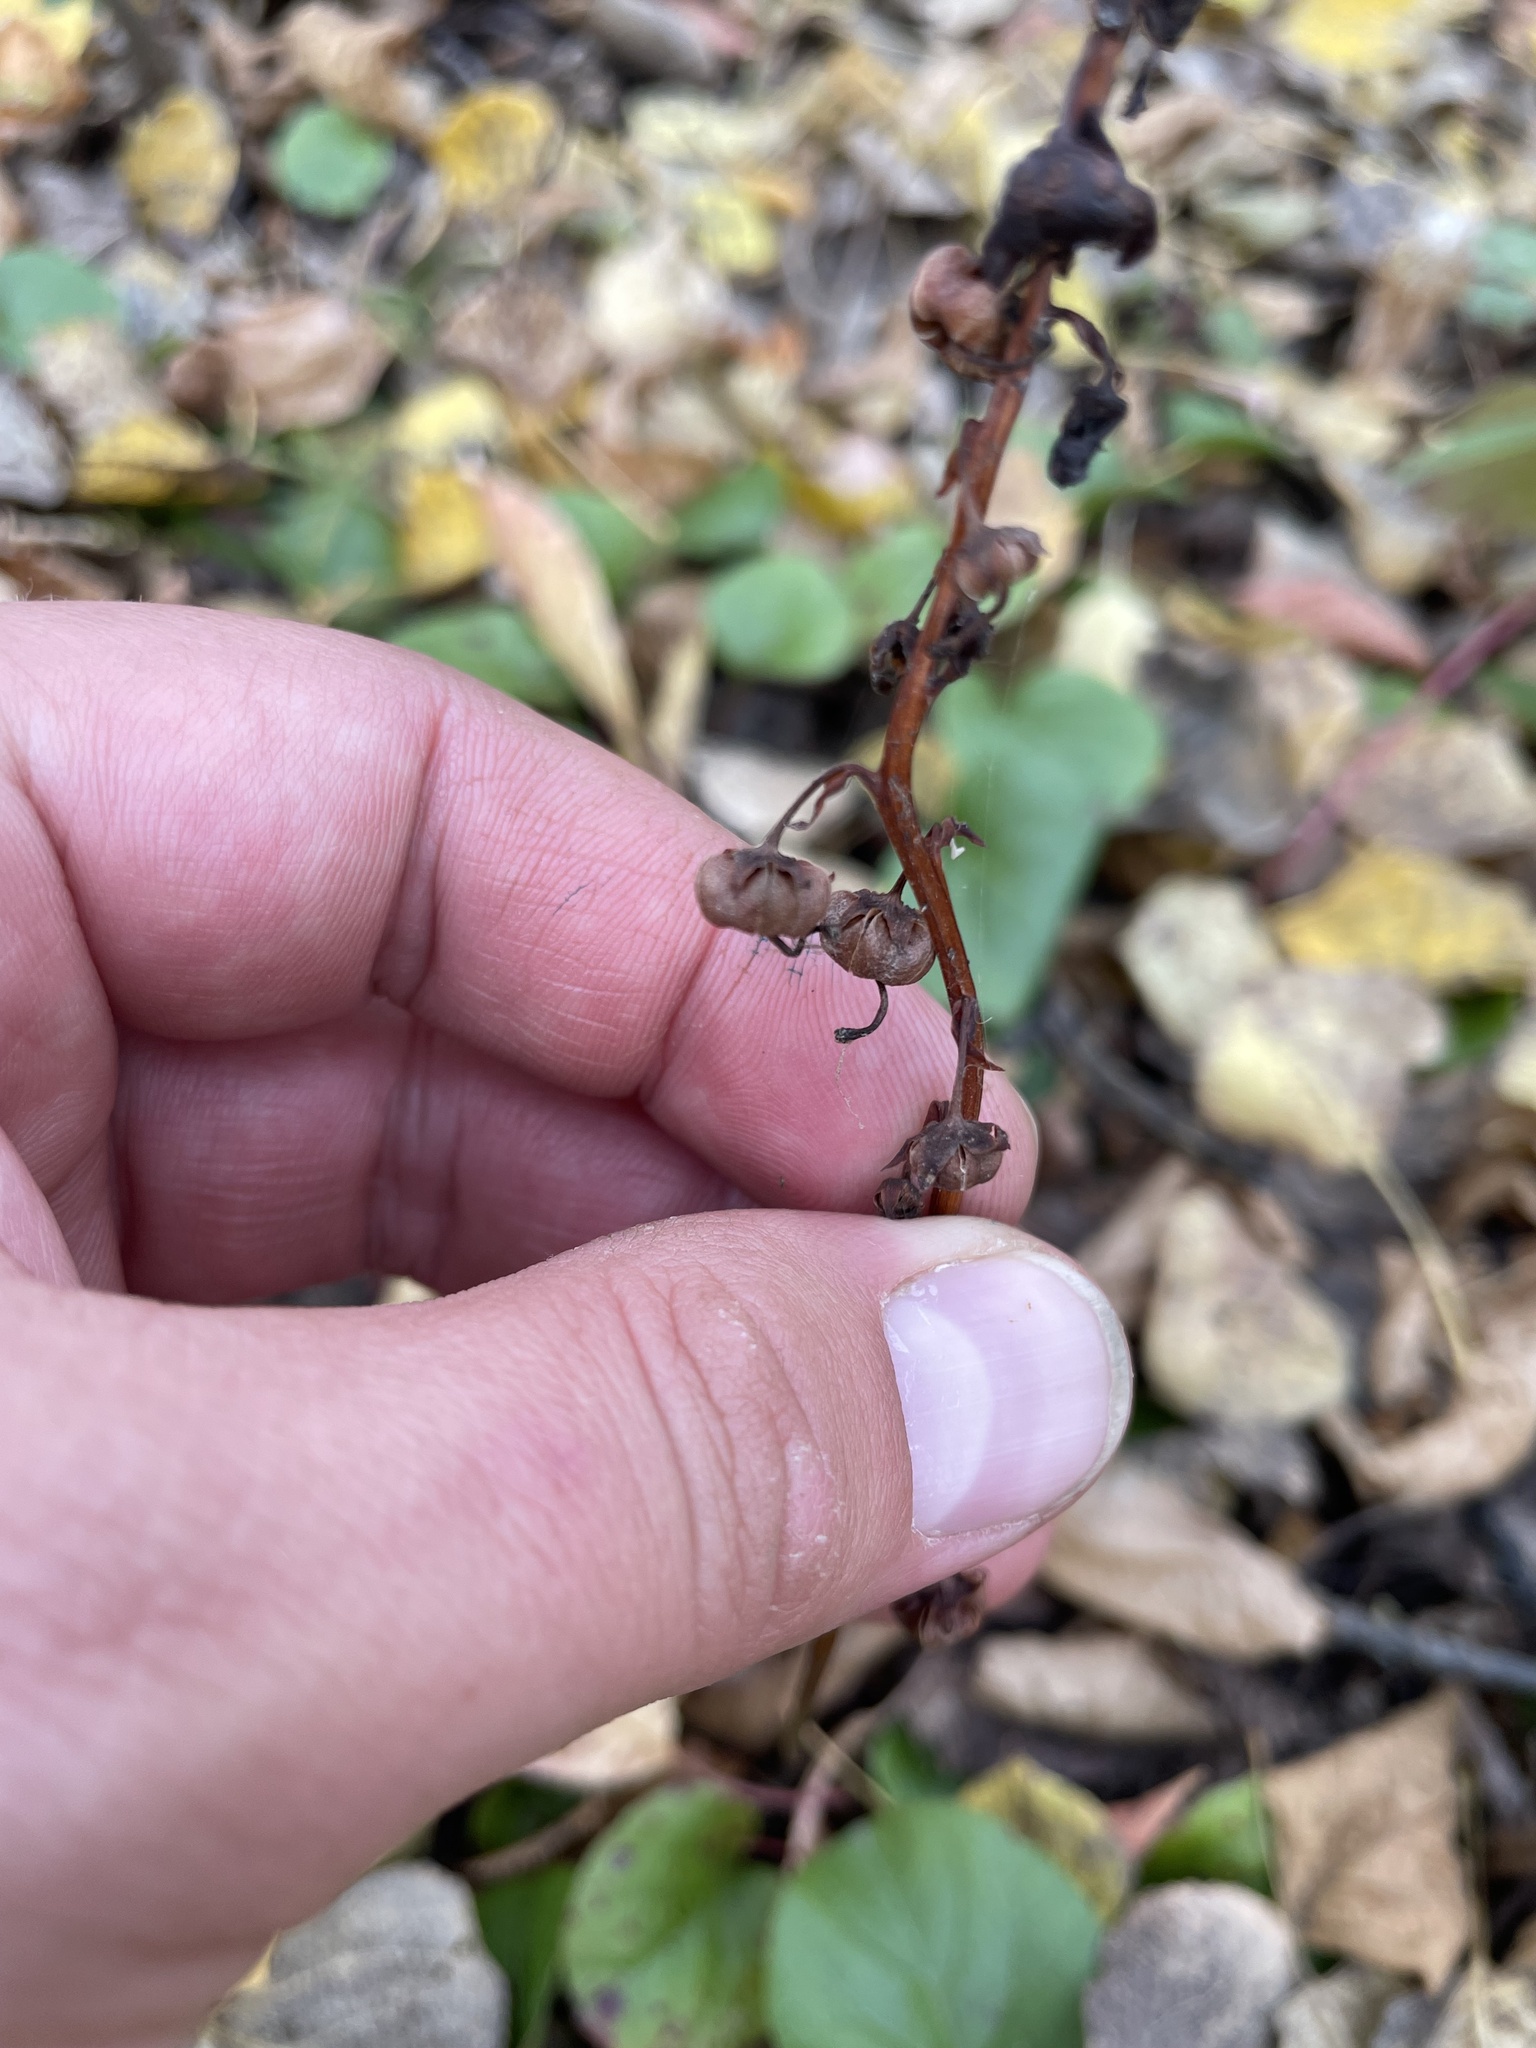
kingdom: Plantae
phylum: Tracheophyta
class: Magnoliopsida
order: Ericales
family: Ericaceae
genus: Pyrola
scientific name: Pyrola asarifolia
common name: Bog wintergreen
